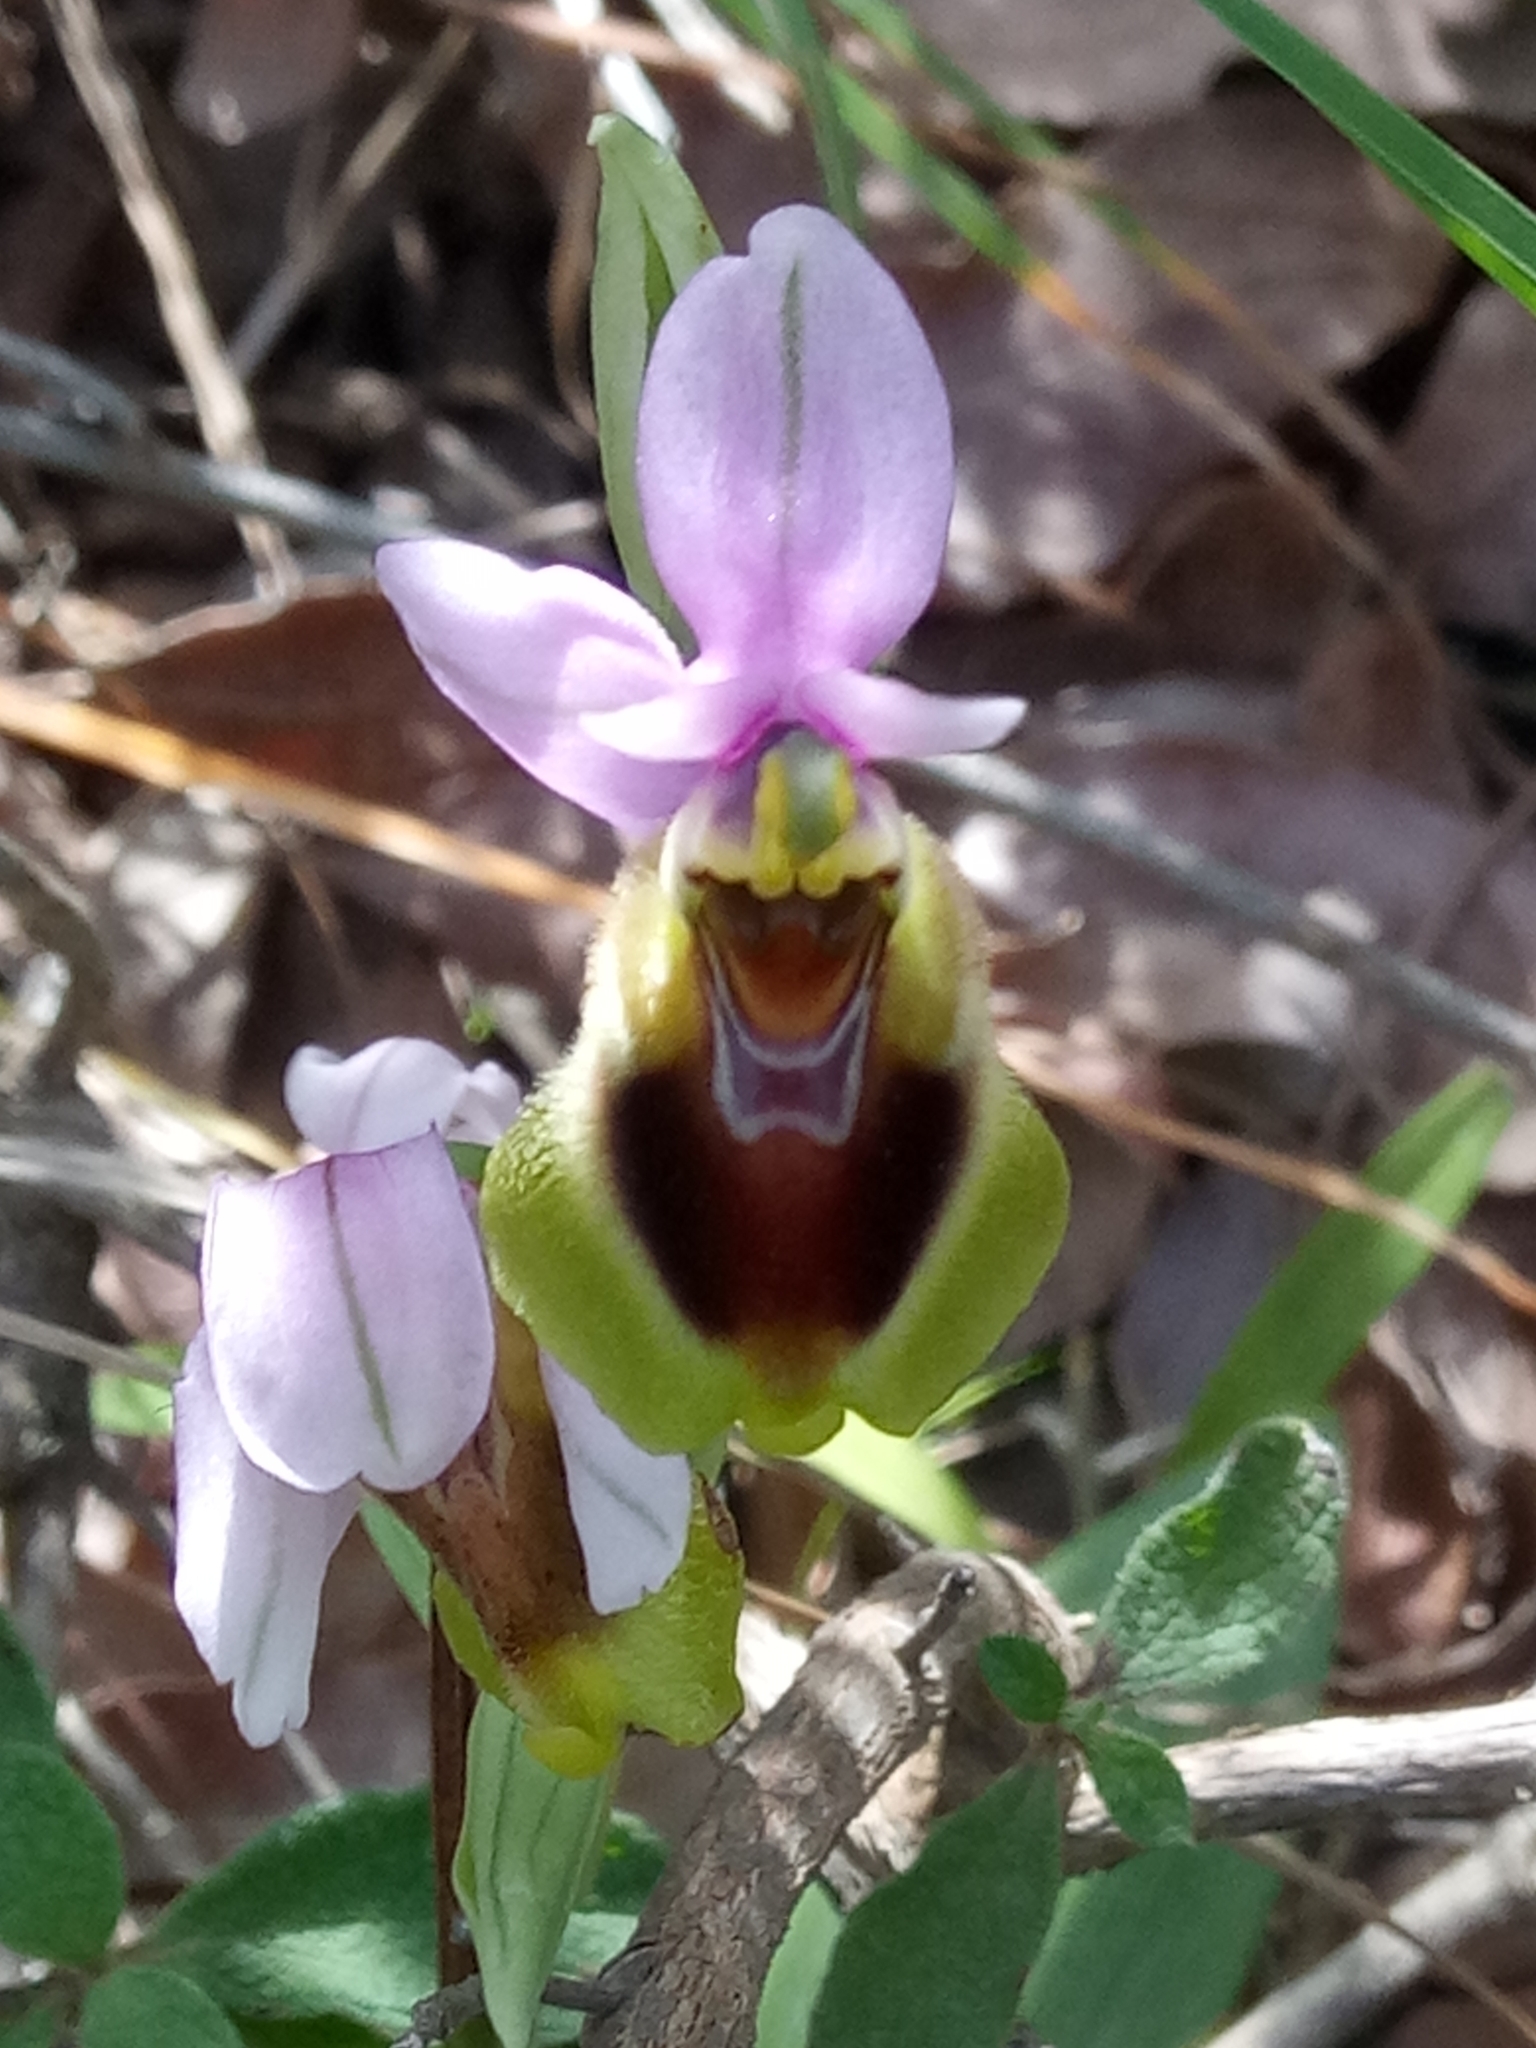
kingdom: Plantae
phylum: Tracheophyta
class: Liliopsida
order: Asparagales
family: Orchidaceae
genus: Ophrys
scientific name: Ophrys tenthredinifera
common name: Sawfly orchid
